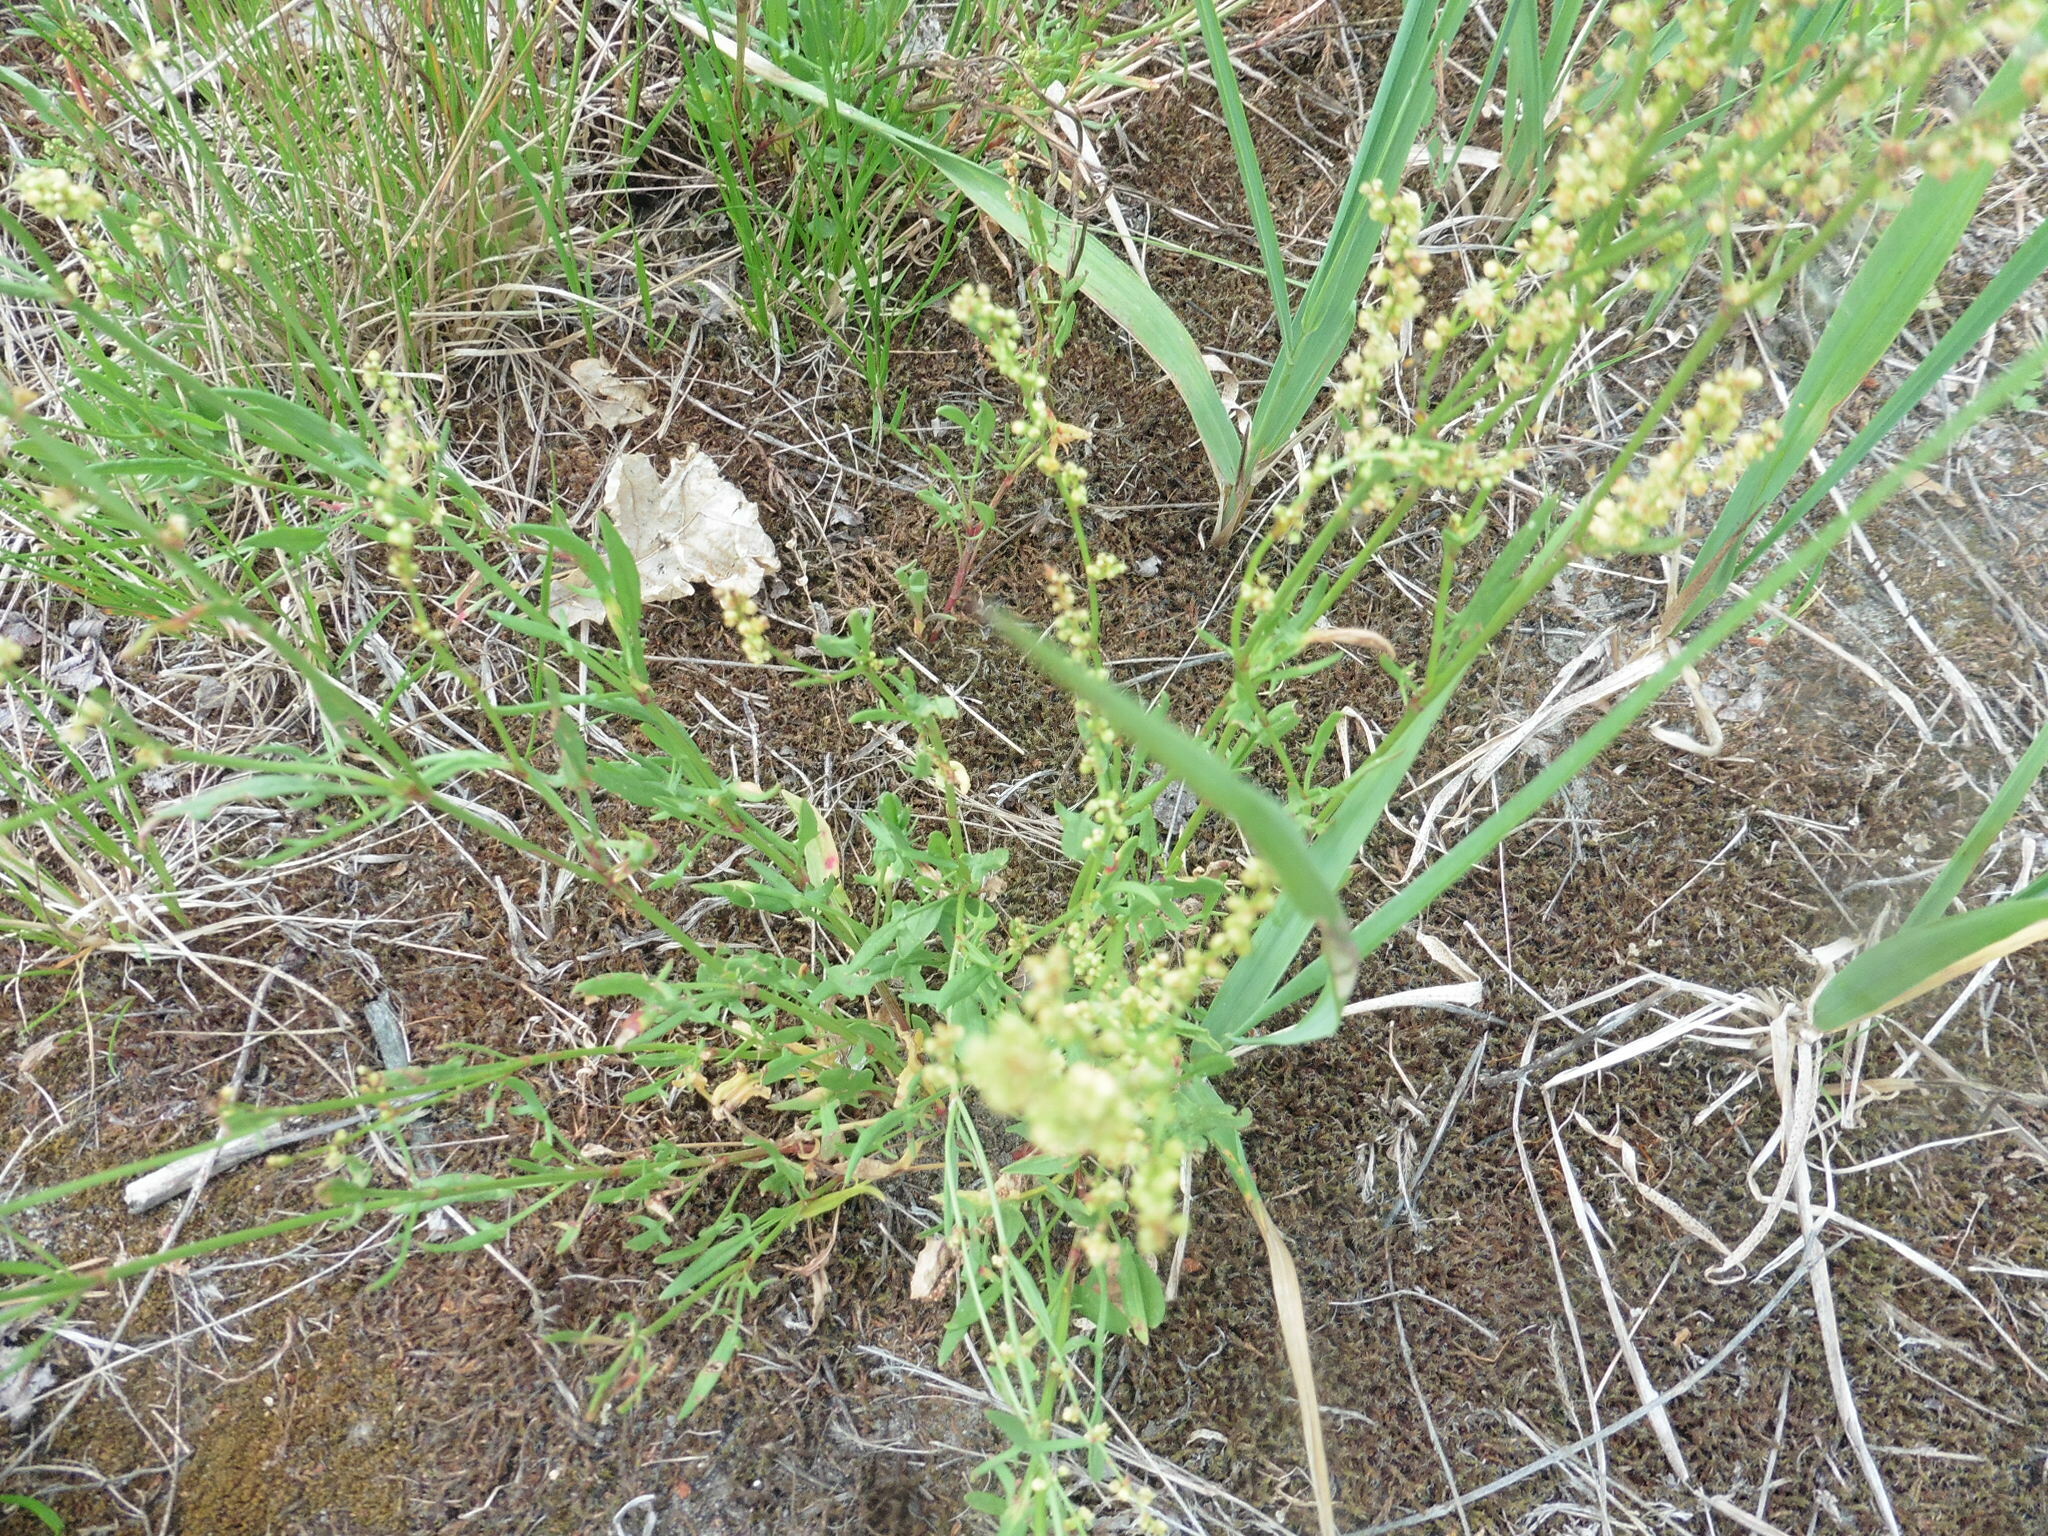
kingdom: Plantae
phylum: Tracheophyta
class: Magnoliopsida
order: Caryophyllales
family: Polygonaceae
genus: Rumex
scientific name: Rumex acetosella
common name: Common sheep sorrel
